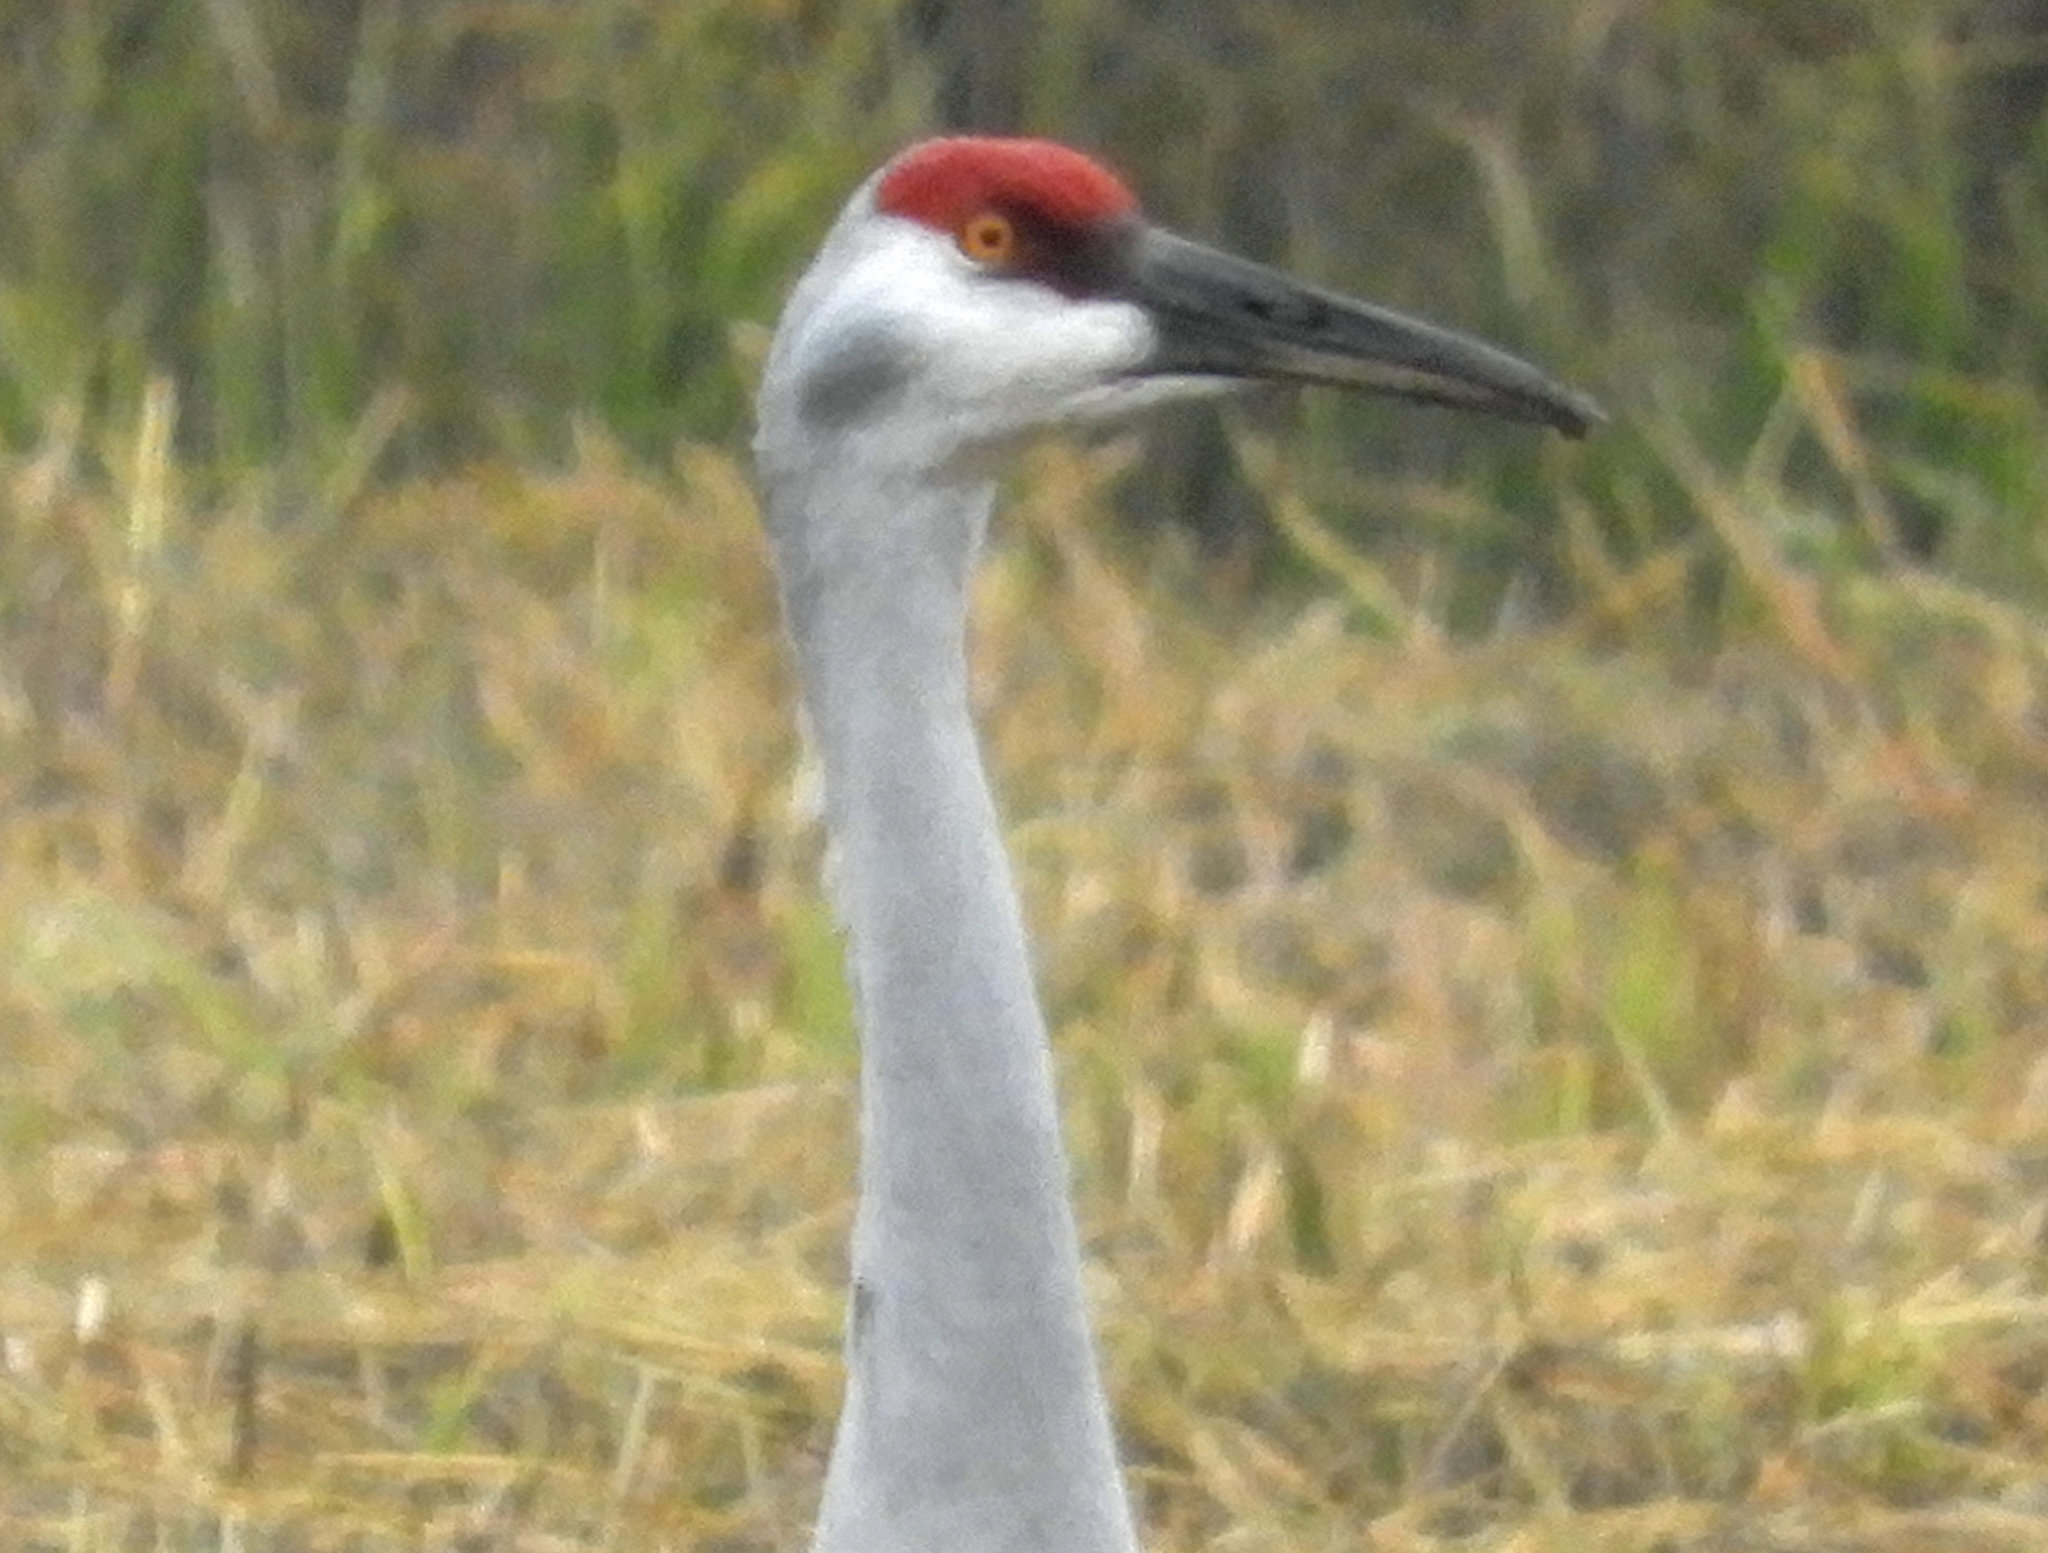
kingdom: Animalia
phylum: Chordata
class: Aves
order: Gruiformes
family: Gruidae
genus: Grus
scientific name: Grus canadensis
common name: Sandhill crane
